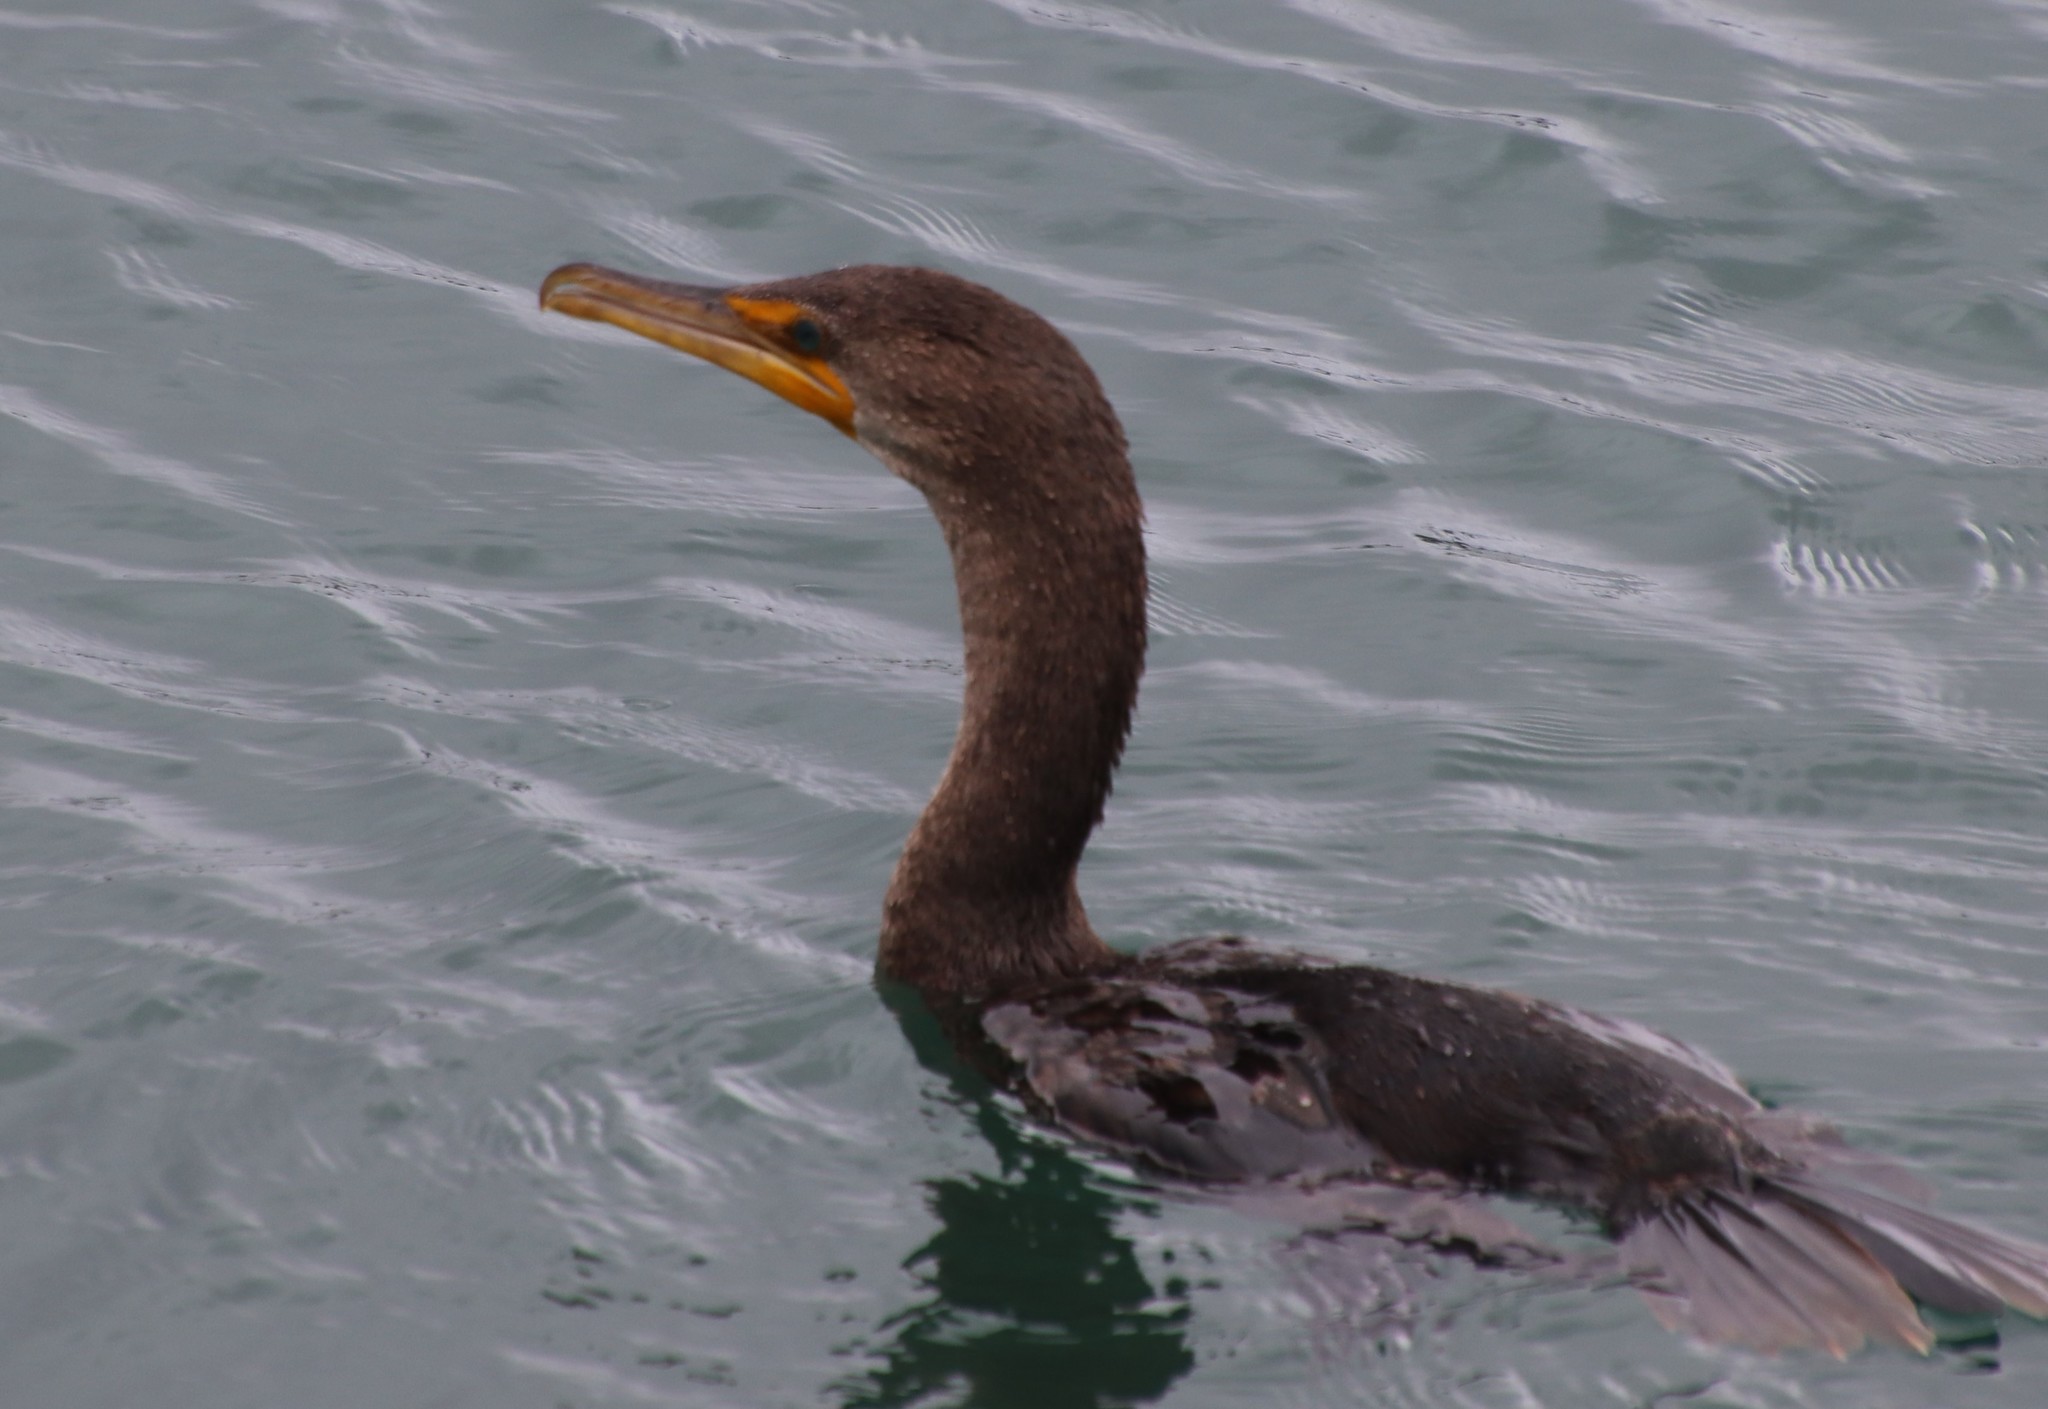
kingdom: Animalia
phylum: Chordata
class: Aves
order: Suliformes
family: Phalacrocoracidae
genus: Phalacrocorax
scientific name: Phalacrocorax auritus
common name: Double-crested cormorant
